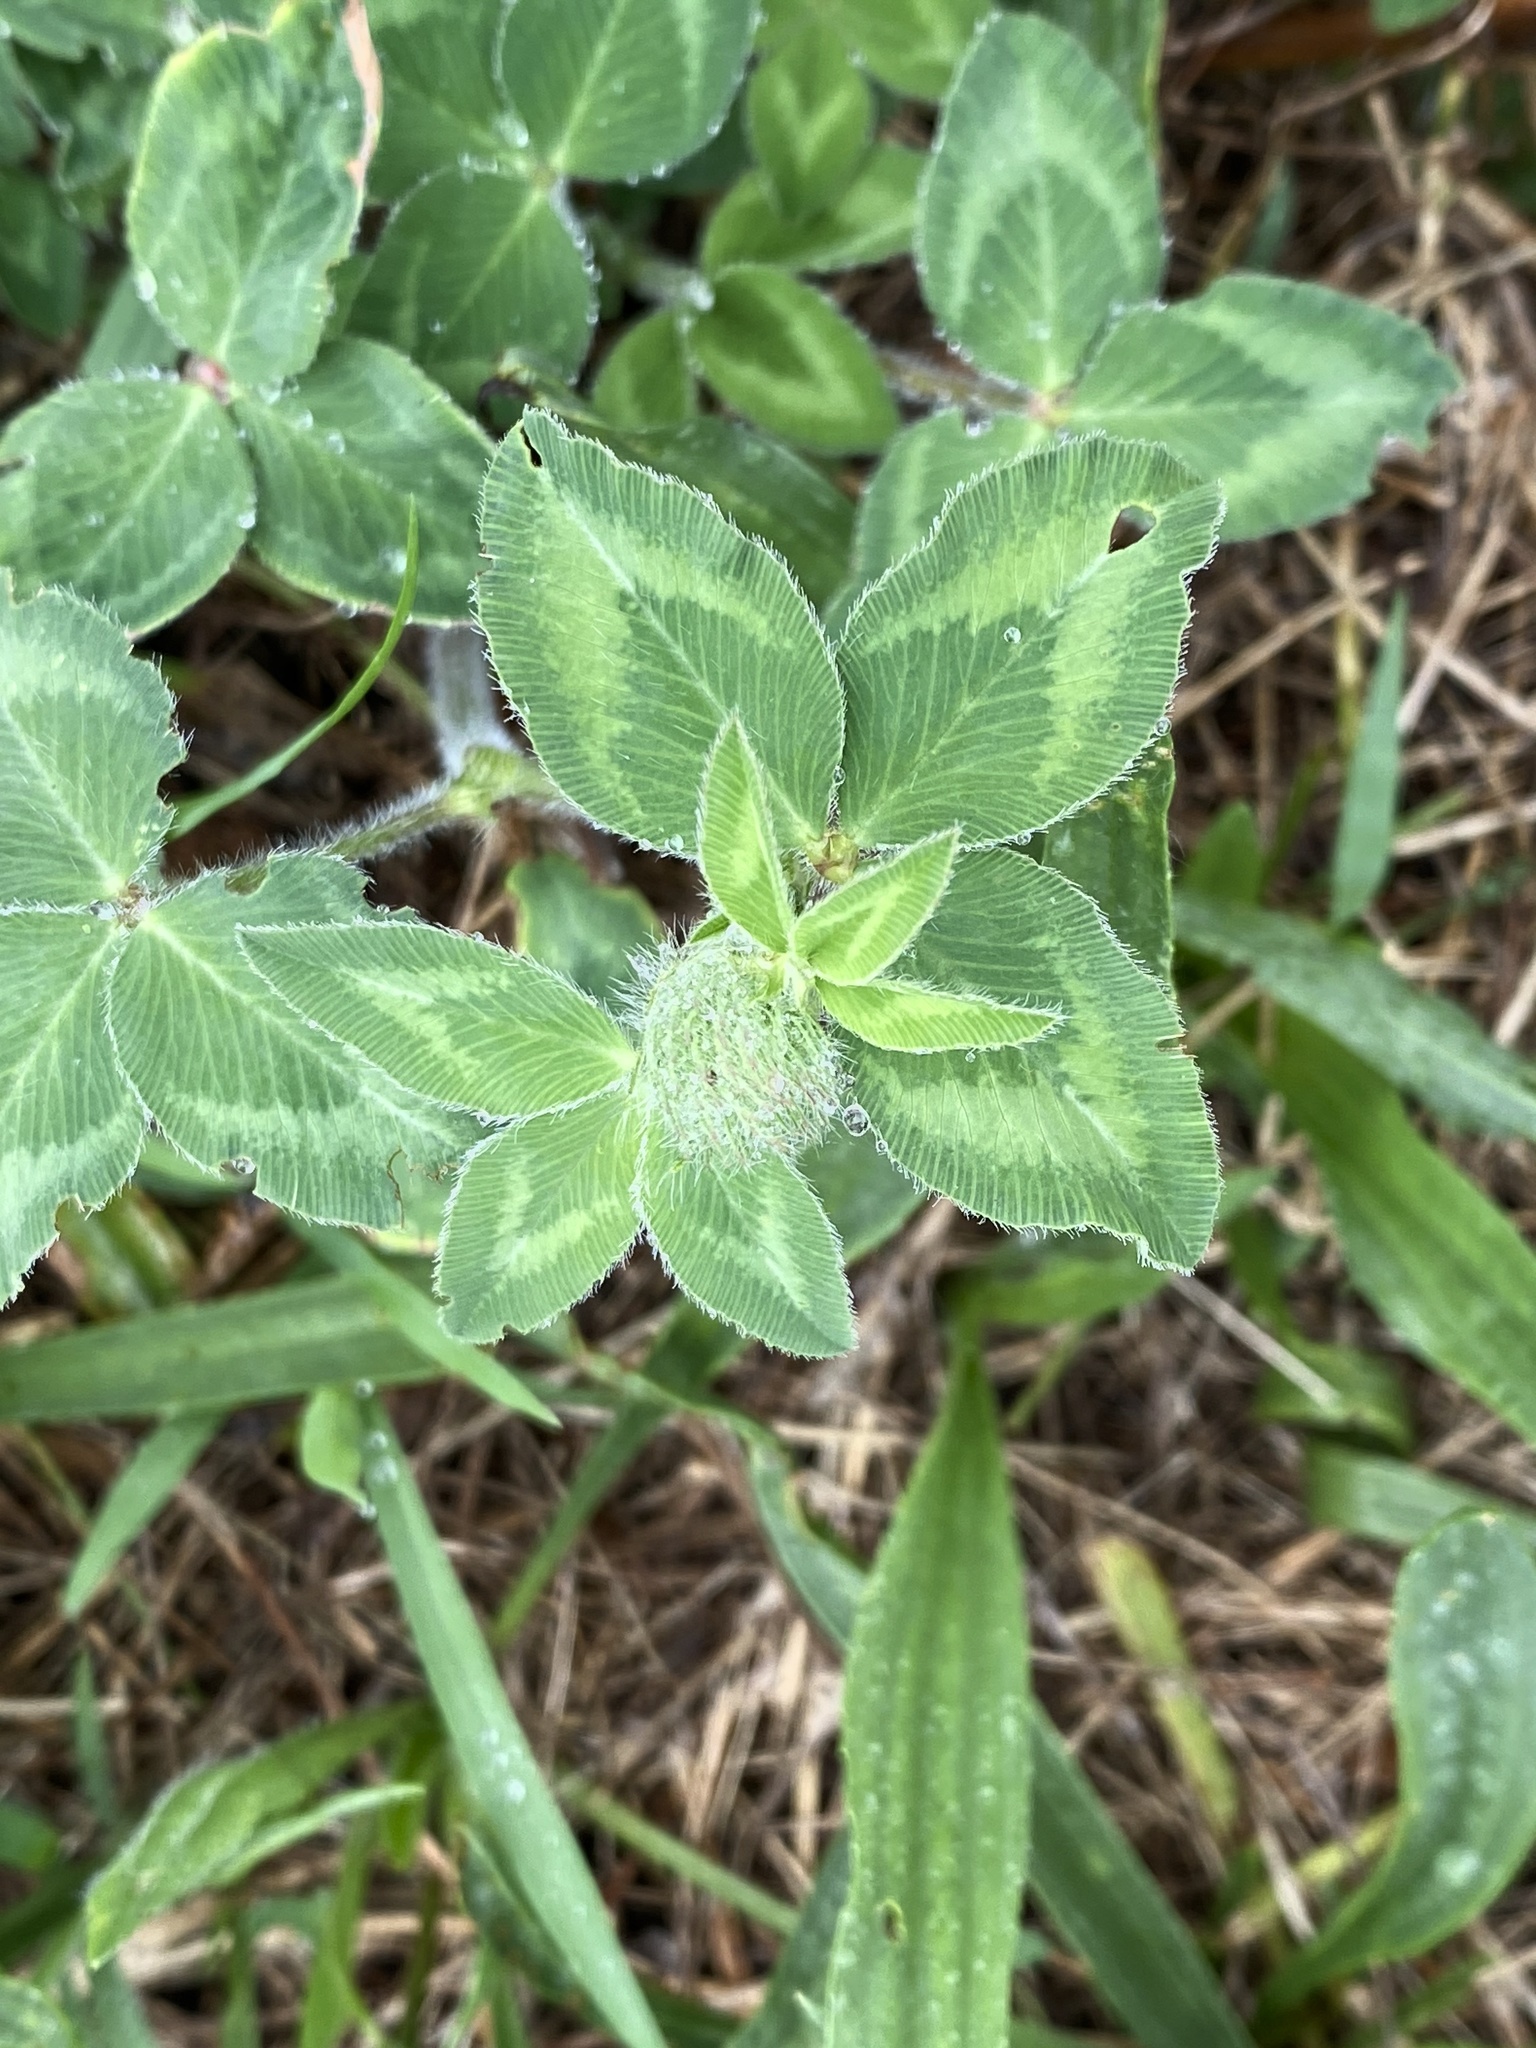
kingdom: Plantae
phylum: Tracheophyta
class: Magnoliopsida
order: Fabales
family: Fabaceae
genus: Trifolium
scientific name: Trifolium pratense
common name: Red clover
